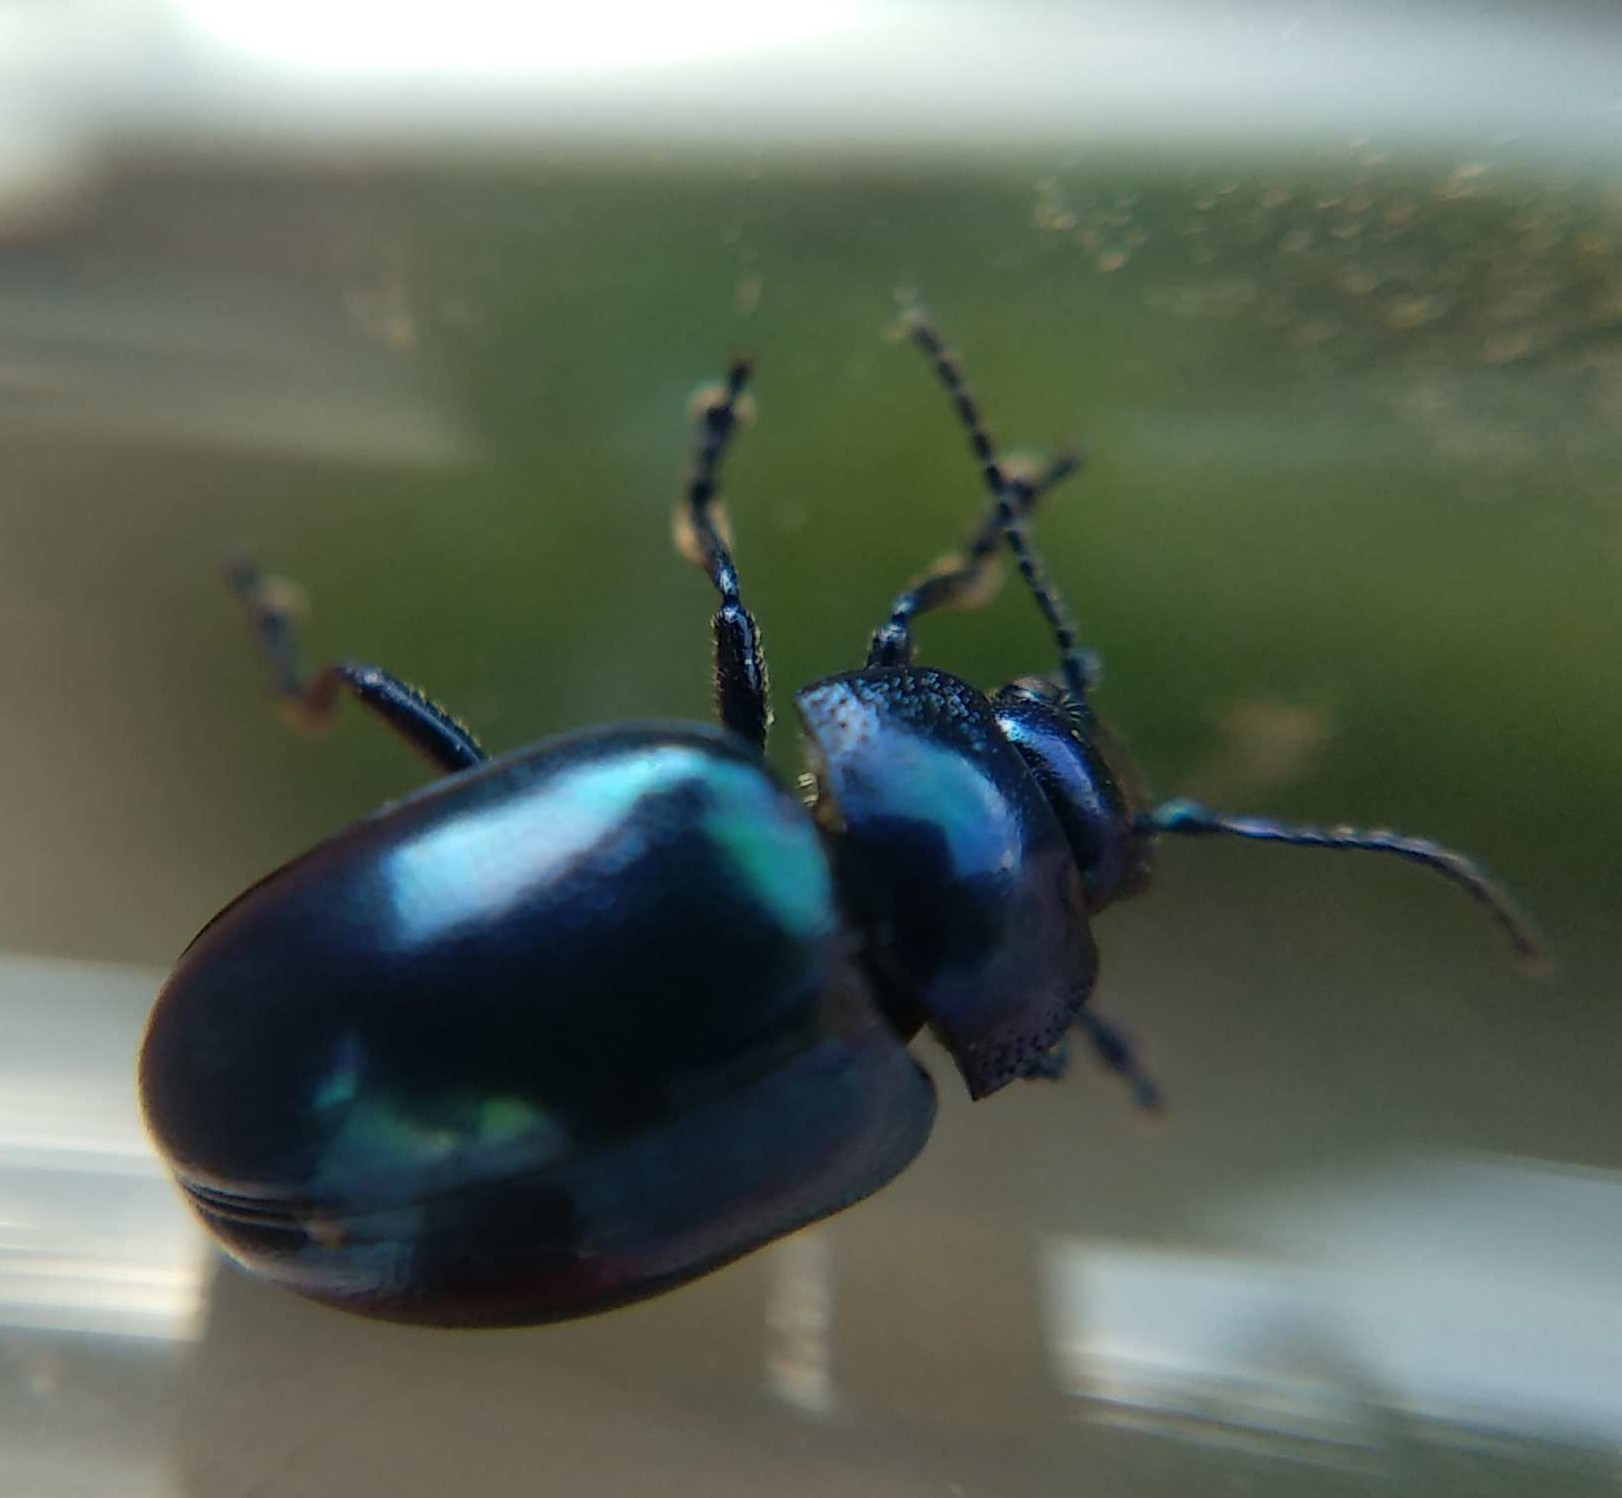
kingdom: Animalia
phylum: Arthropoda
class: Insecta
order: Coleoptera
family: Chrysomelidae
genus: Chrysolina
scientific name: Chrysolina coerulans
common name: Blue mint beetle
